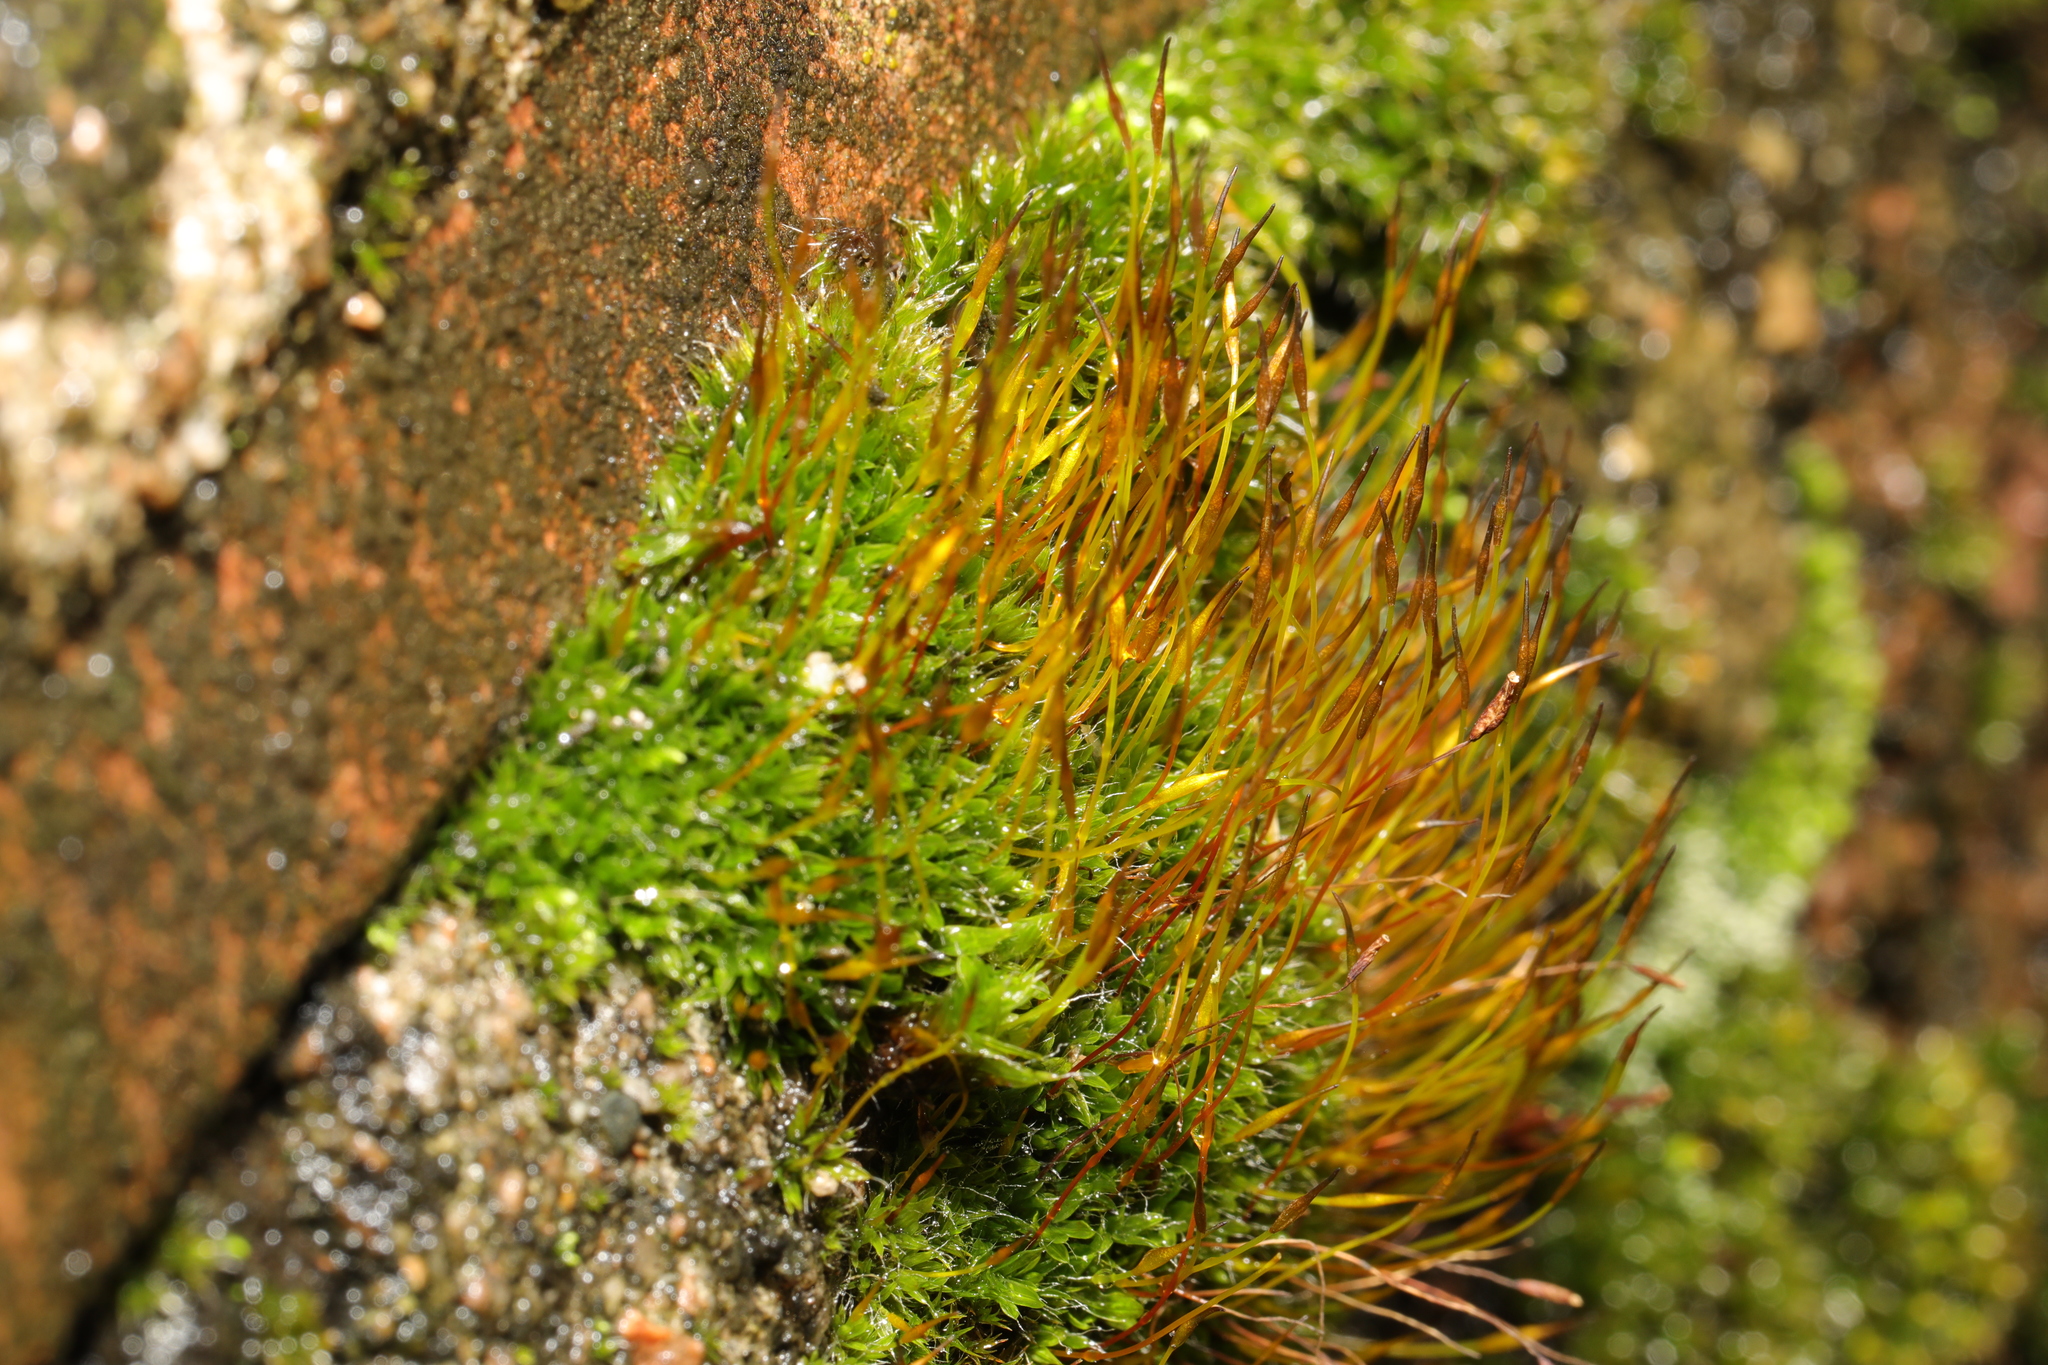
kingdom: Plantae
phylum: Bryophyta
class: Bryopsida
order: Pottiales
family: Pottiaceae
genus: Tortula
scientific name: Tortula muralis
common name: Wall screw-moss
